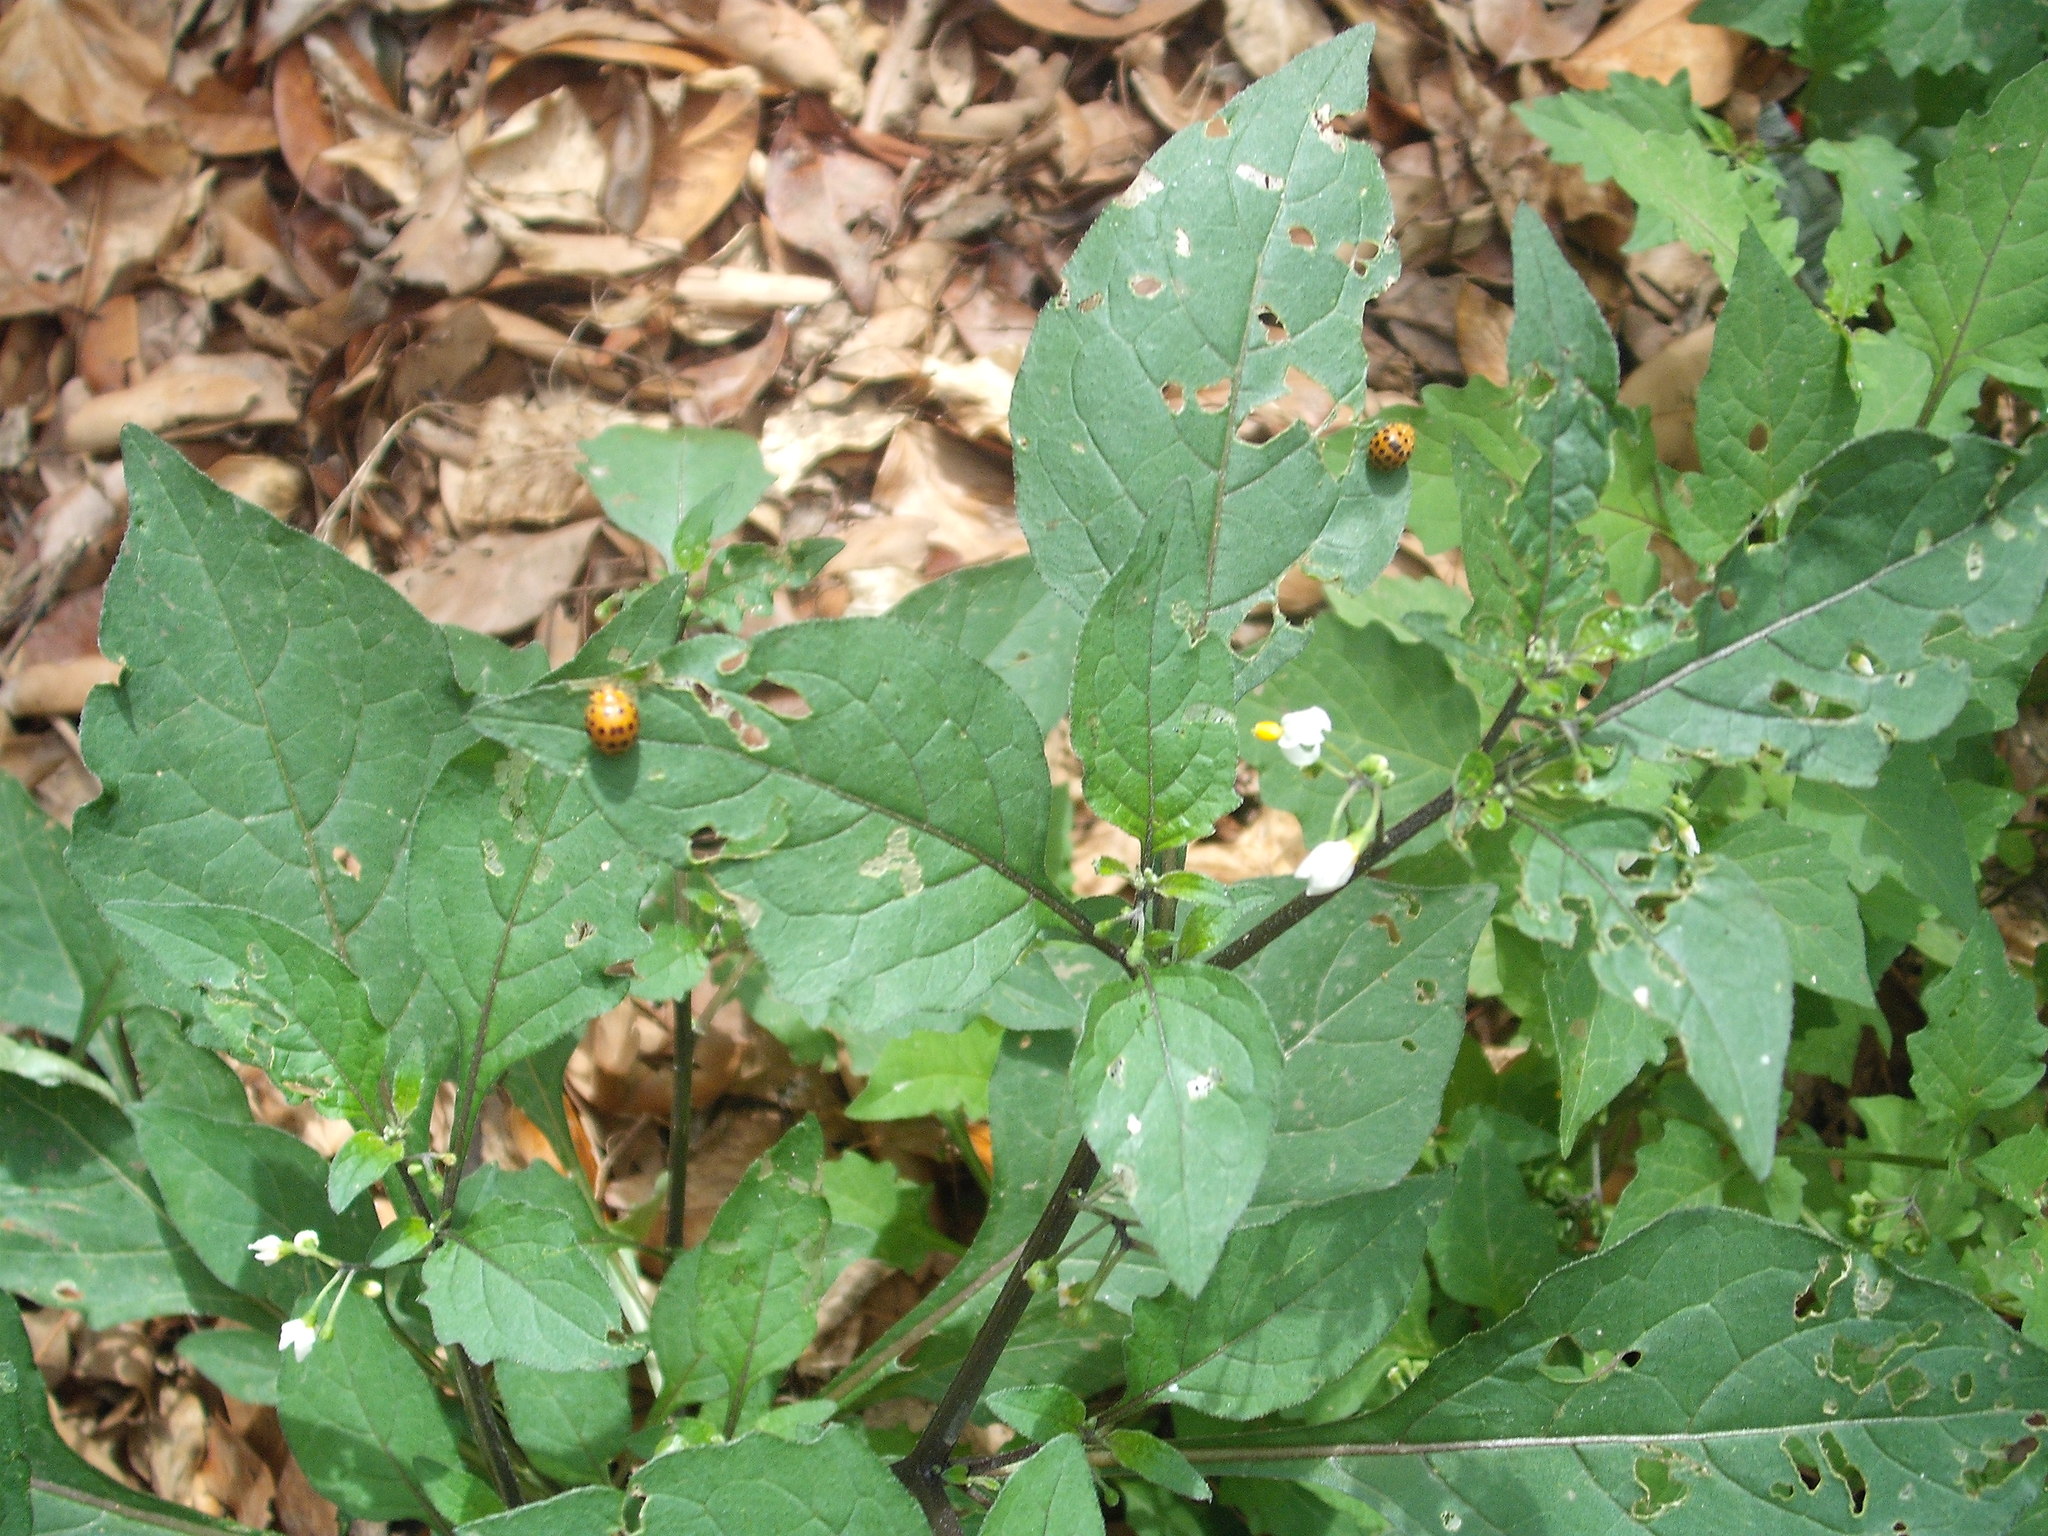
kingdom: Animalia
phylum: Arthropoda
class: Insecta
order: Coleoptera
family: Coccinellidae
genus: Henosepilachna
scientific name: Henosepilachna vigintioctopunctata
